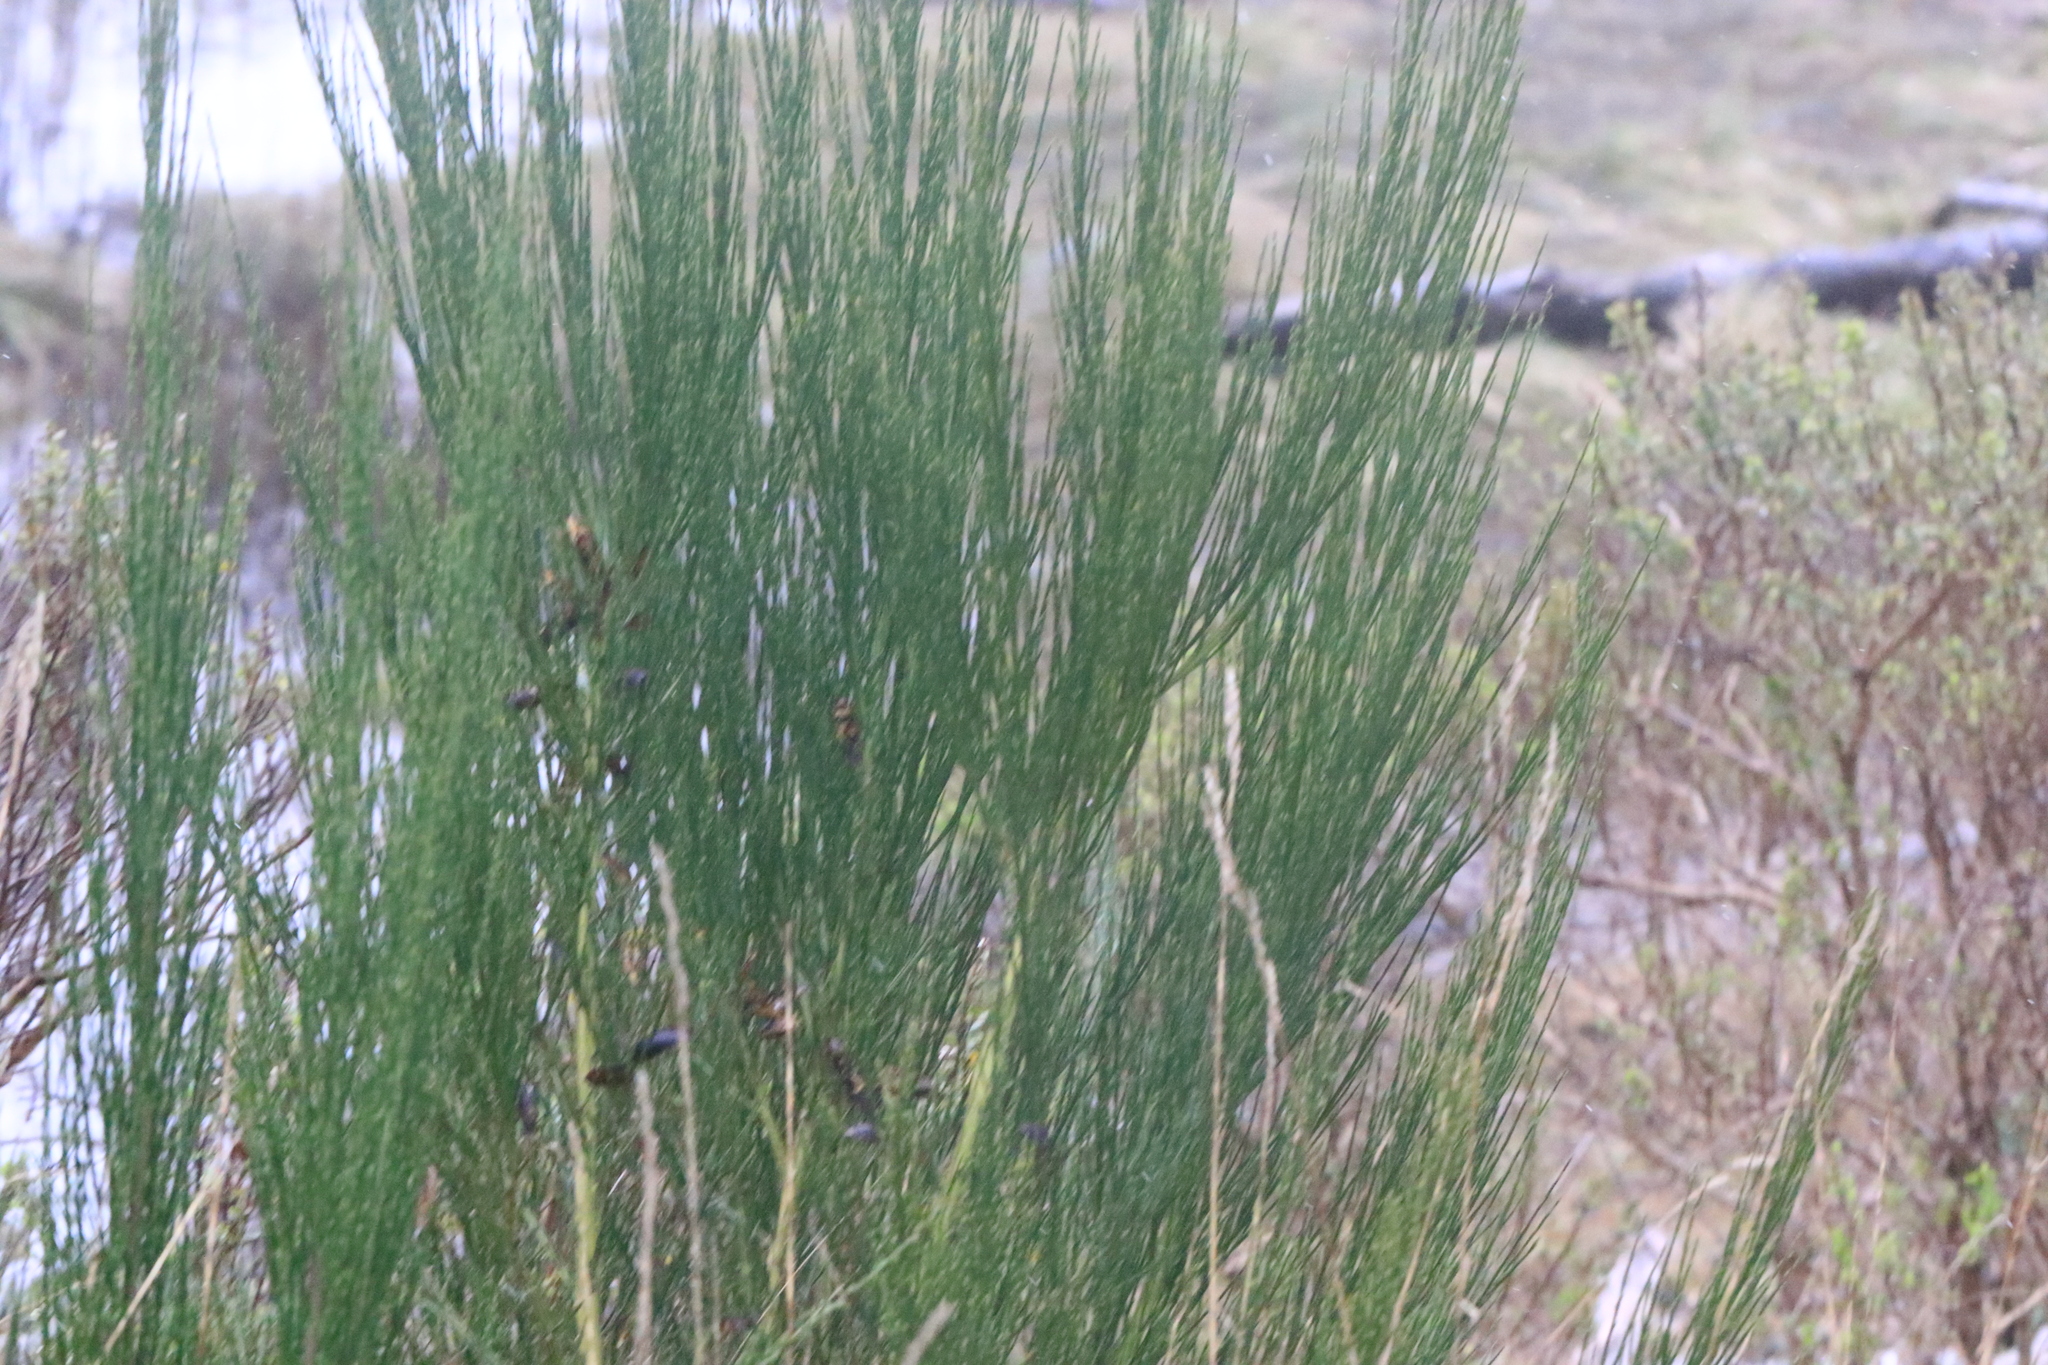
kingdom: Plantae
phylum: Tracheophyta
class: Magnoliopsida
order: Fabales
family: Fabaceae
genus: Cytisus
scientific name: Cytisus scoparius
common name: Scotch broom
